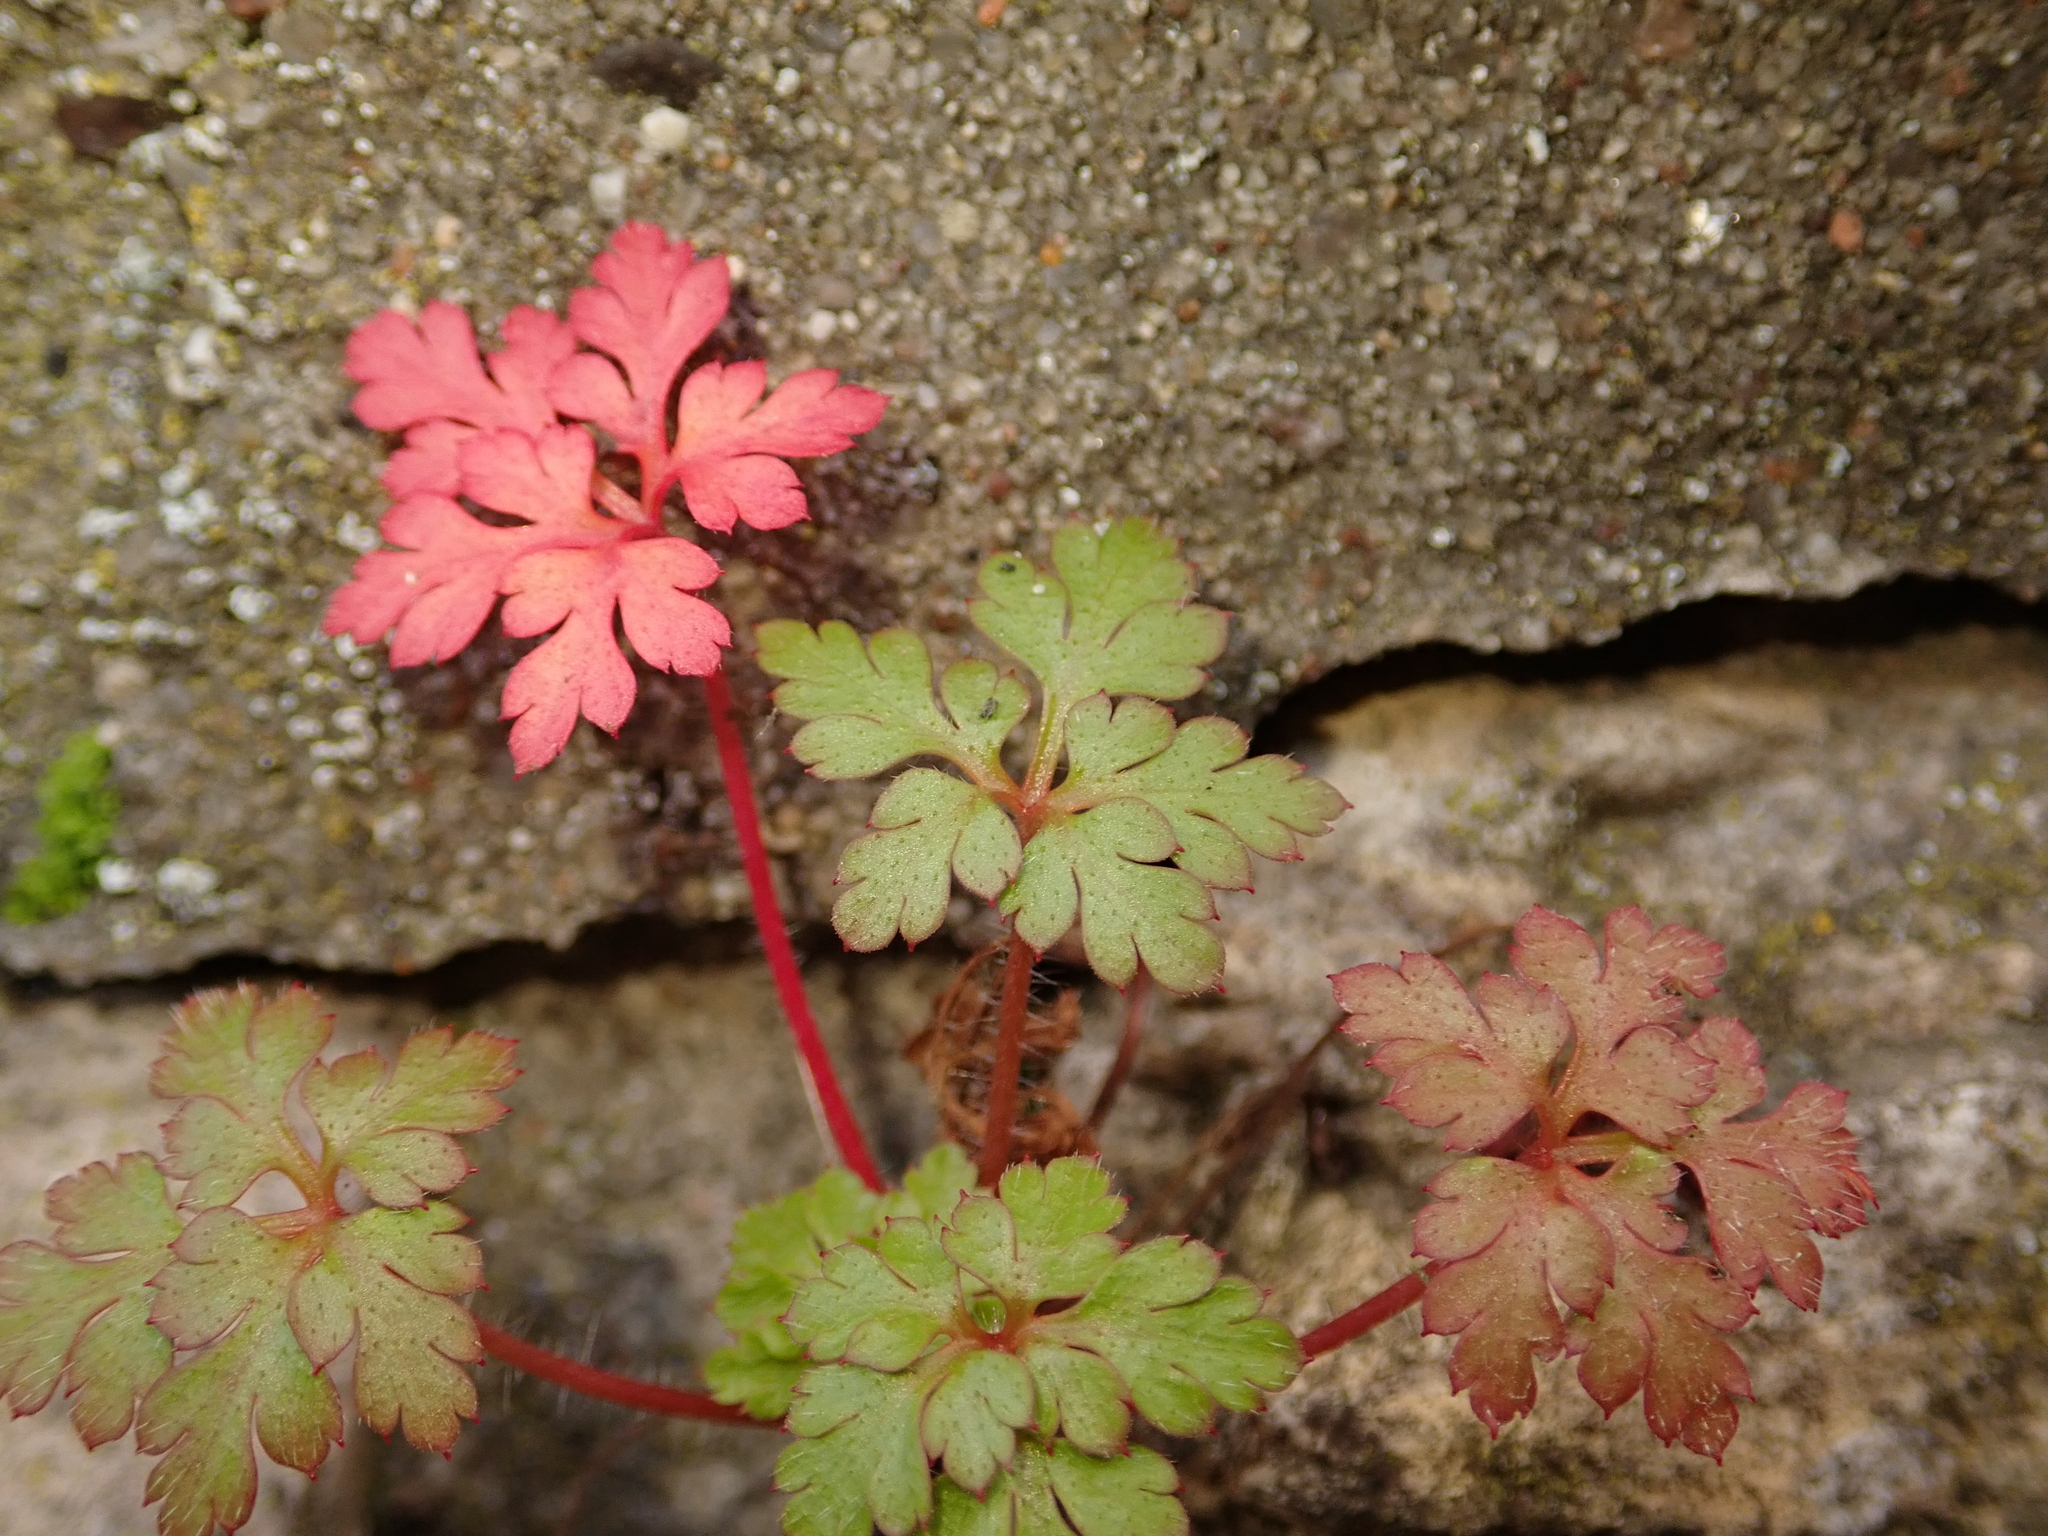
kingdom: Plantae
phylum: Tracheophyta
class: Magnoliopsida
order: Geraniales
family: Geraniaceae
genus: Geranium
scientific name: Geranium robertianum
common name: Herb-robert
